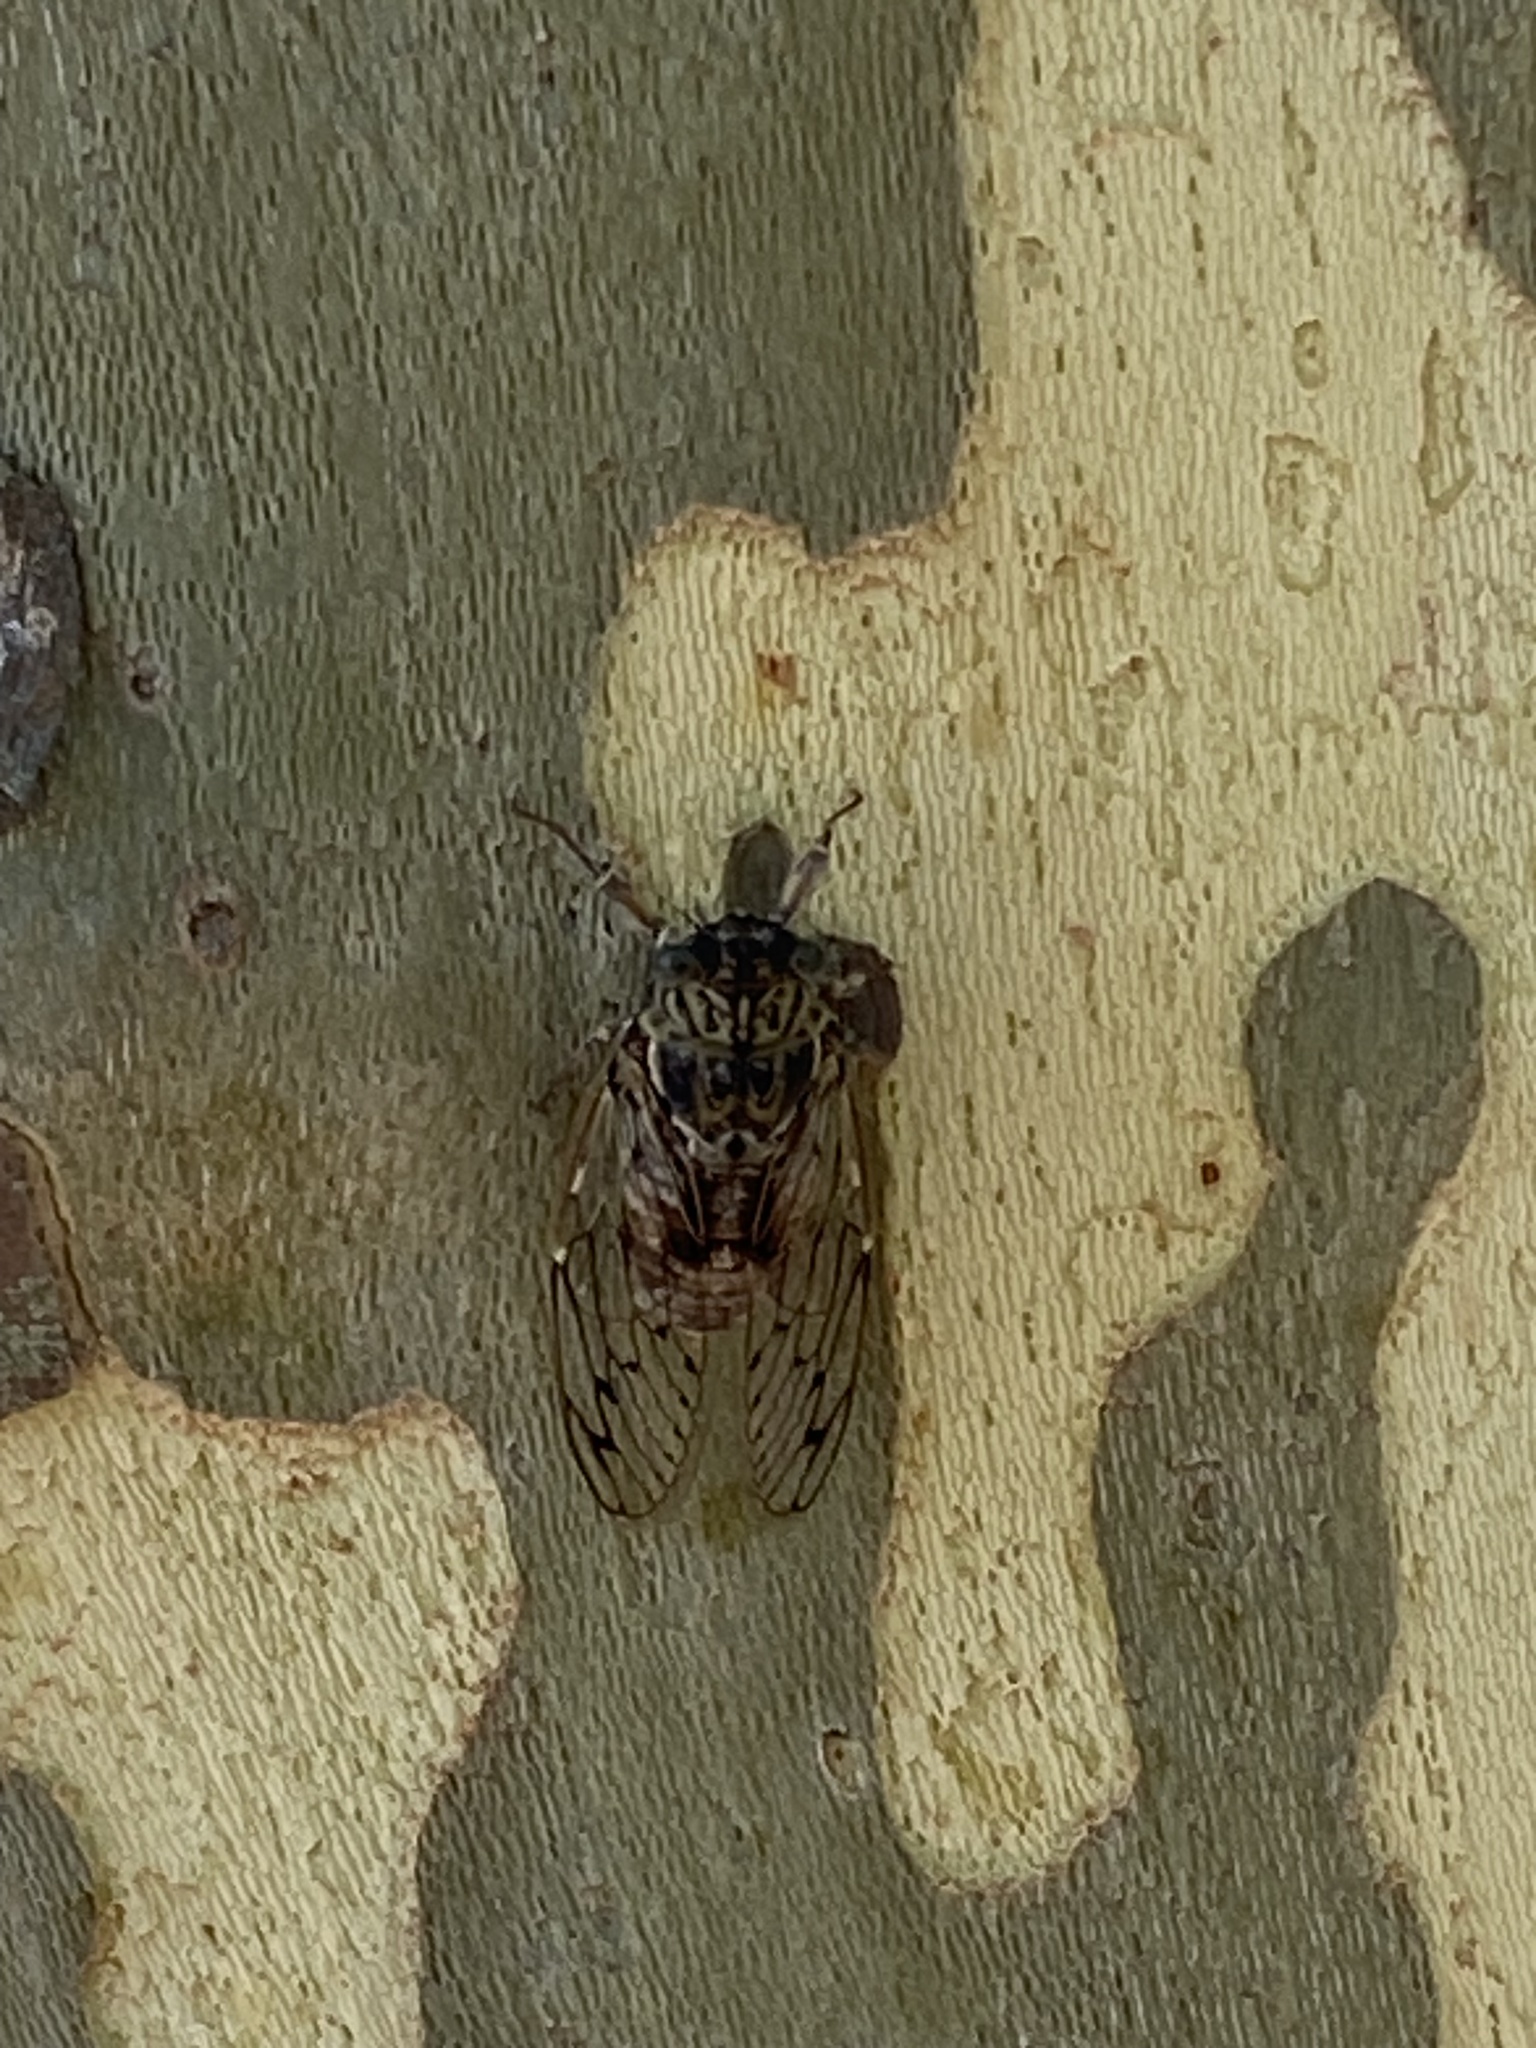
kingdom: Animalia
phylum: Arthropoda
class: Insecta
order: Hemiptera
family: Cicadidae
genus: Cicada
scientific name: Cicada orni
